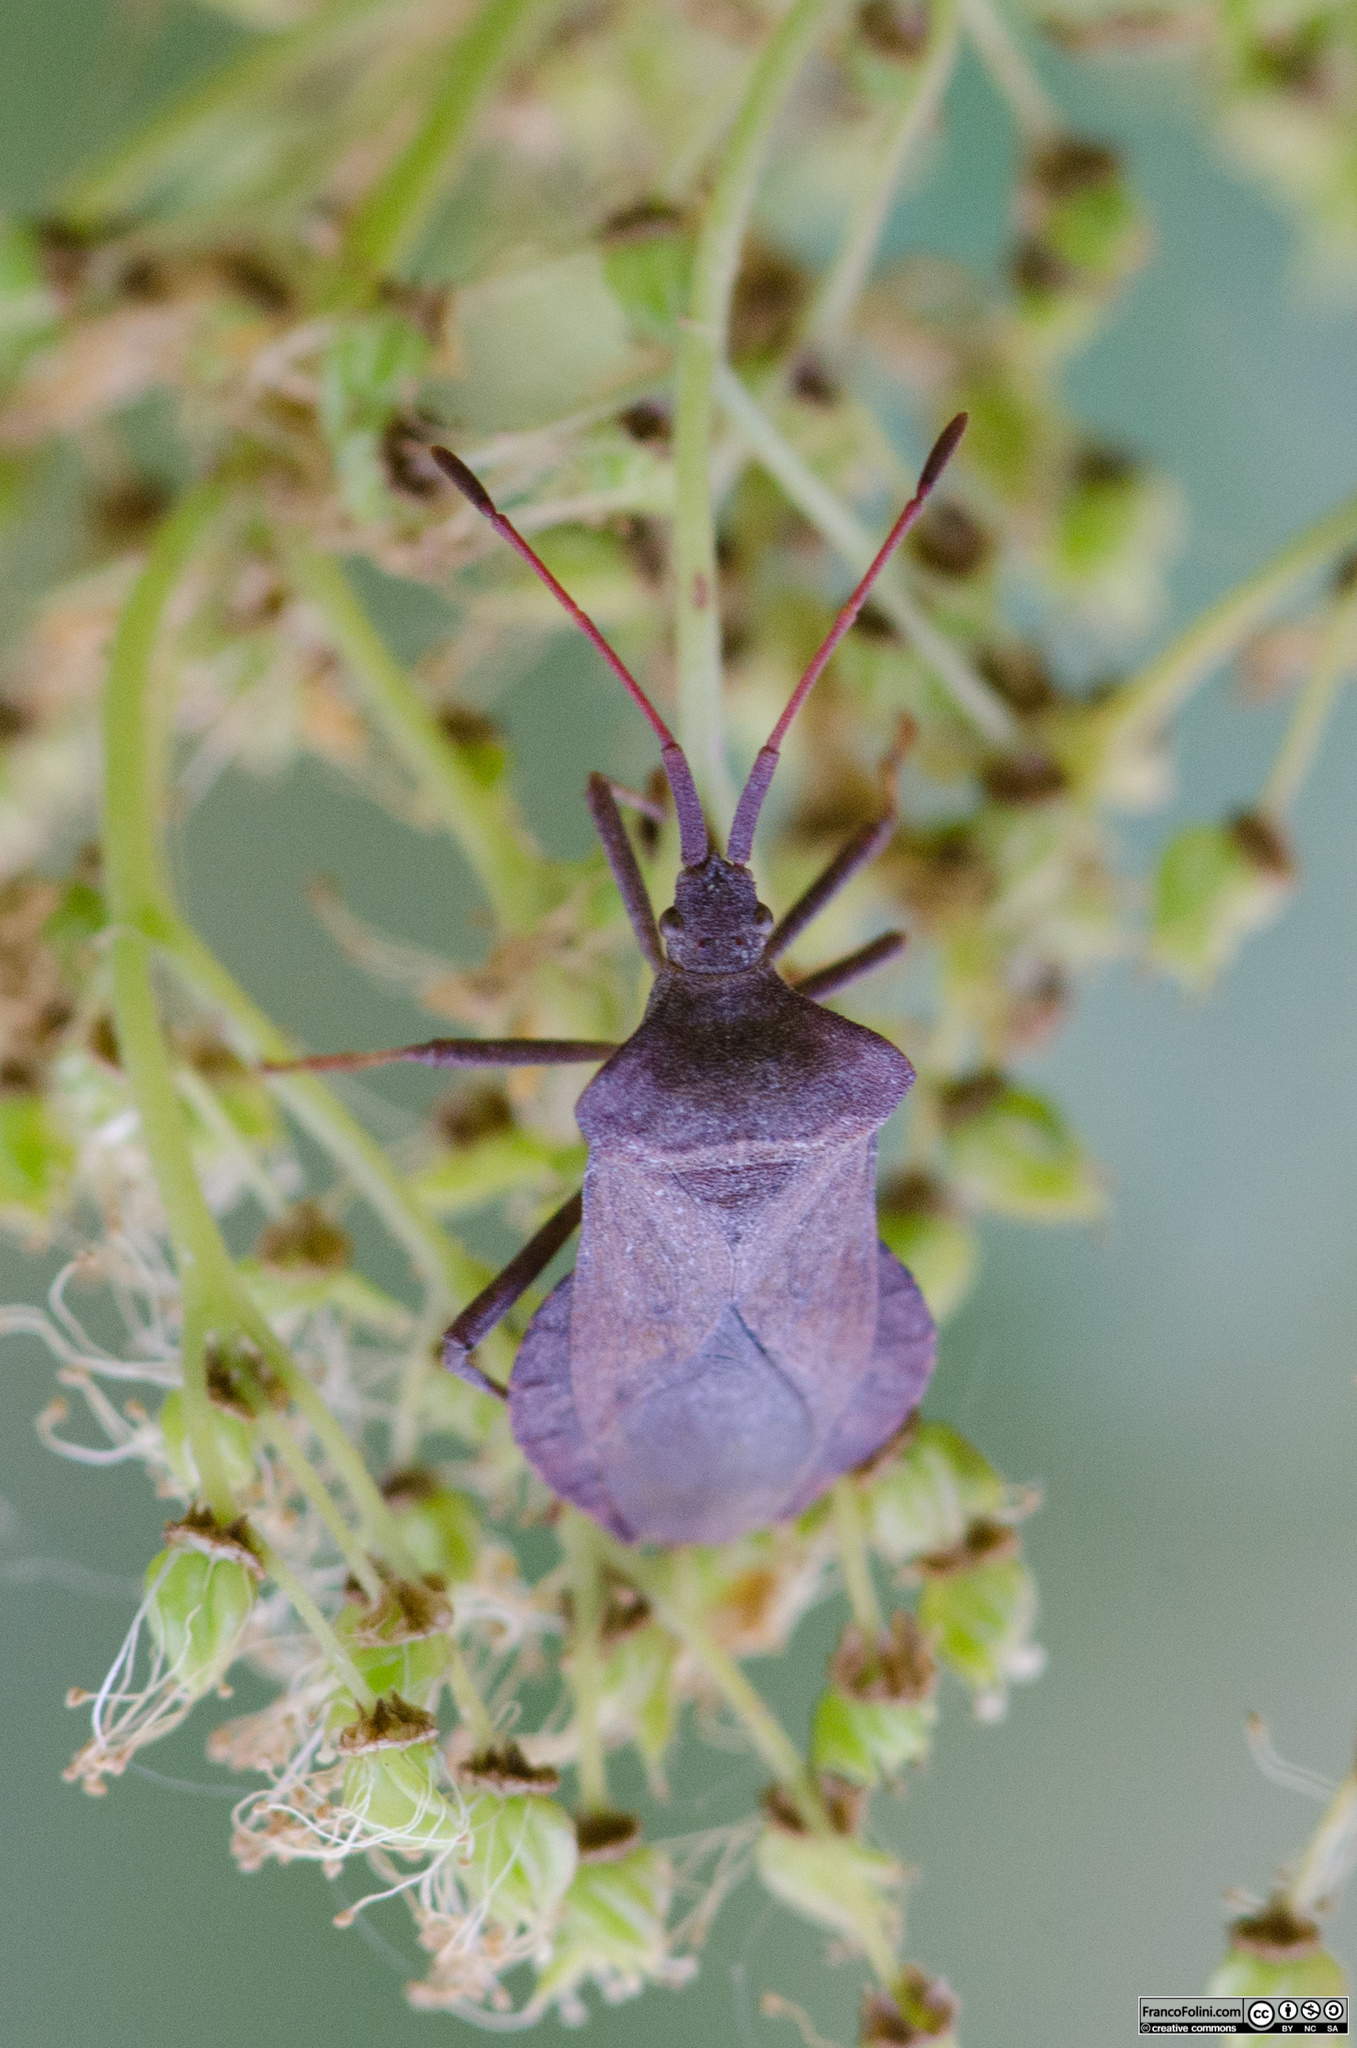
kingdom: Animalia
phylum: Arthropoda
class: Insecta
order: Hemiptera
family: Coreidae
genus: Coreus
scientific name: Coreus marginatus
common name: Dock bug
